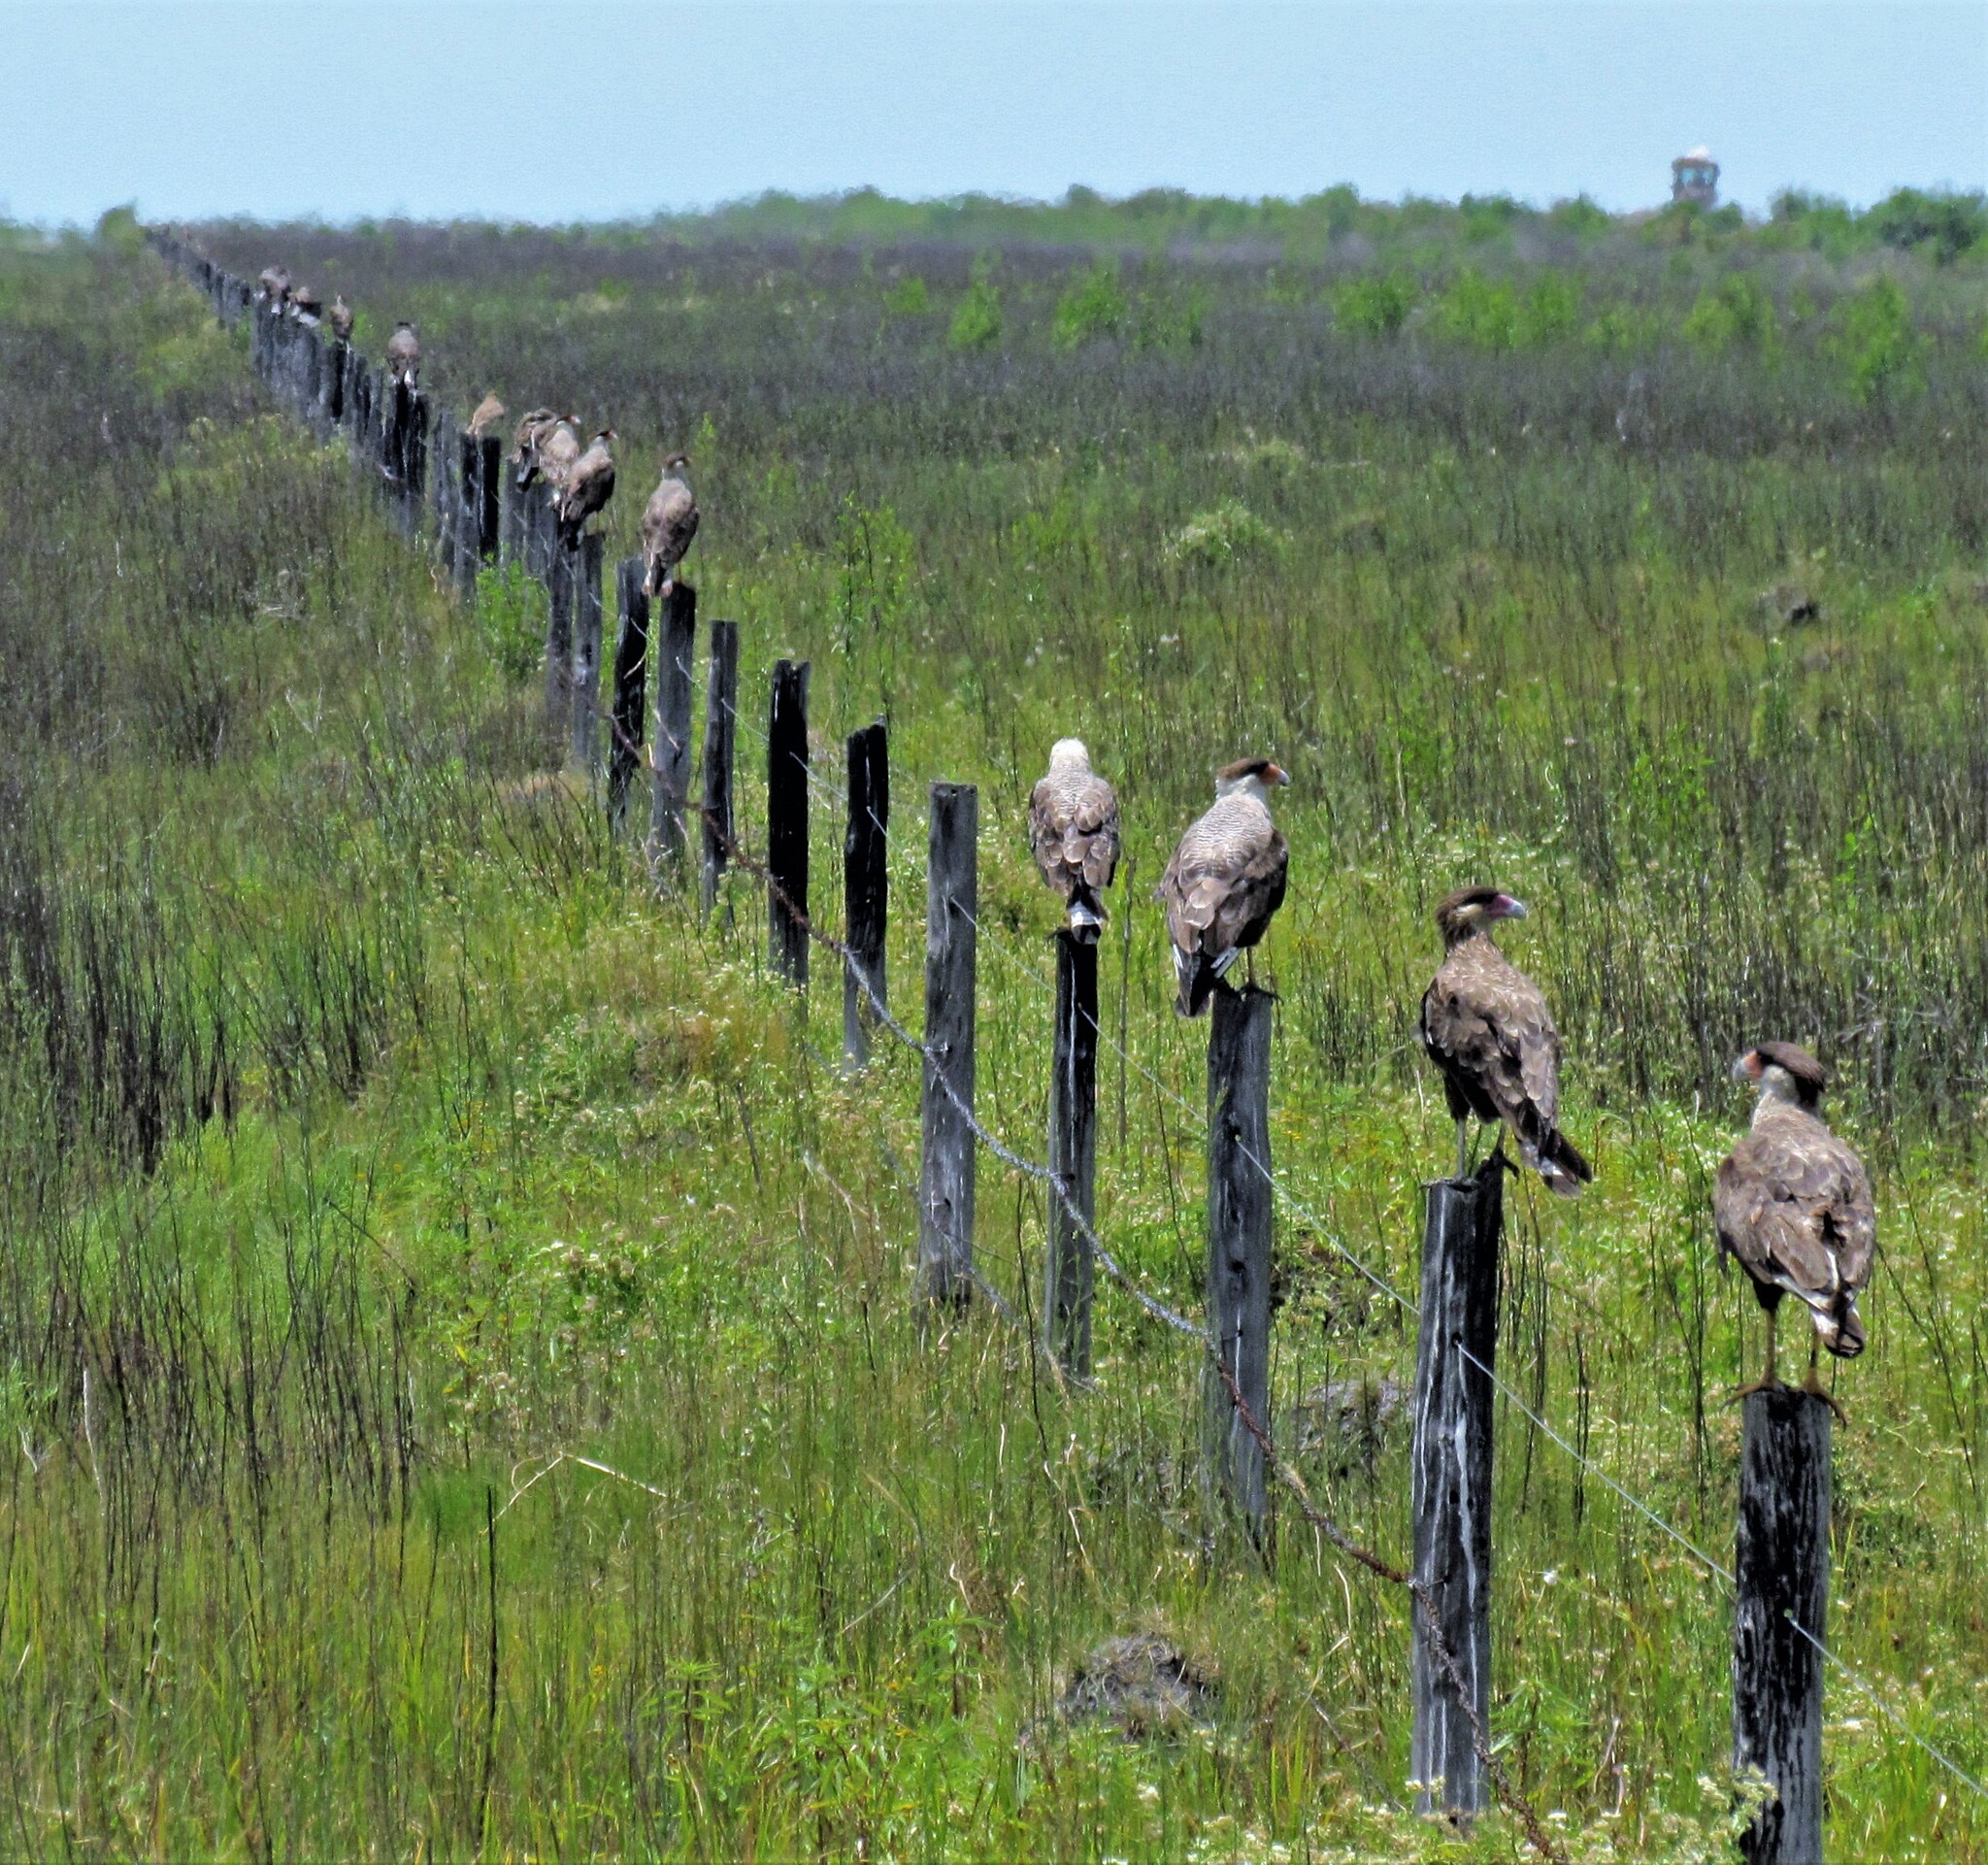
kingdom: Animalia
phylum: Chordata
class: Aves
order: Falconiformes
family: Falconidae
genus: Caracara
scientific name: Caracara plancus
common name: Southern caracara
